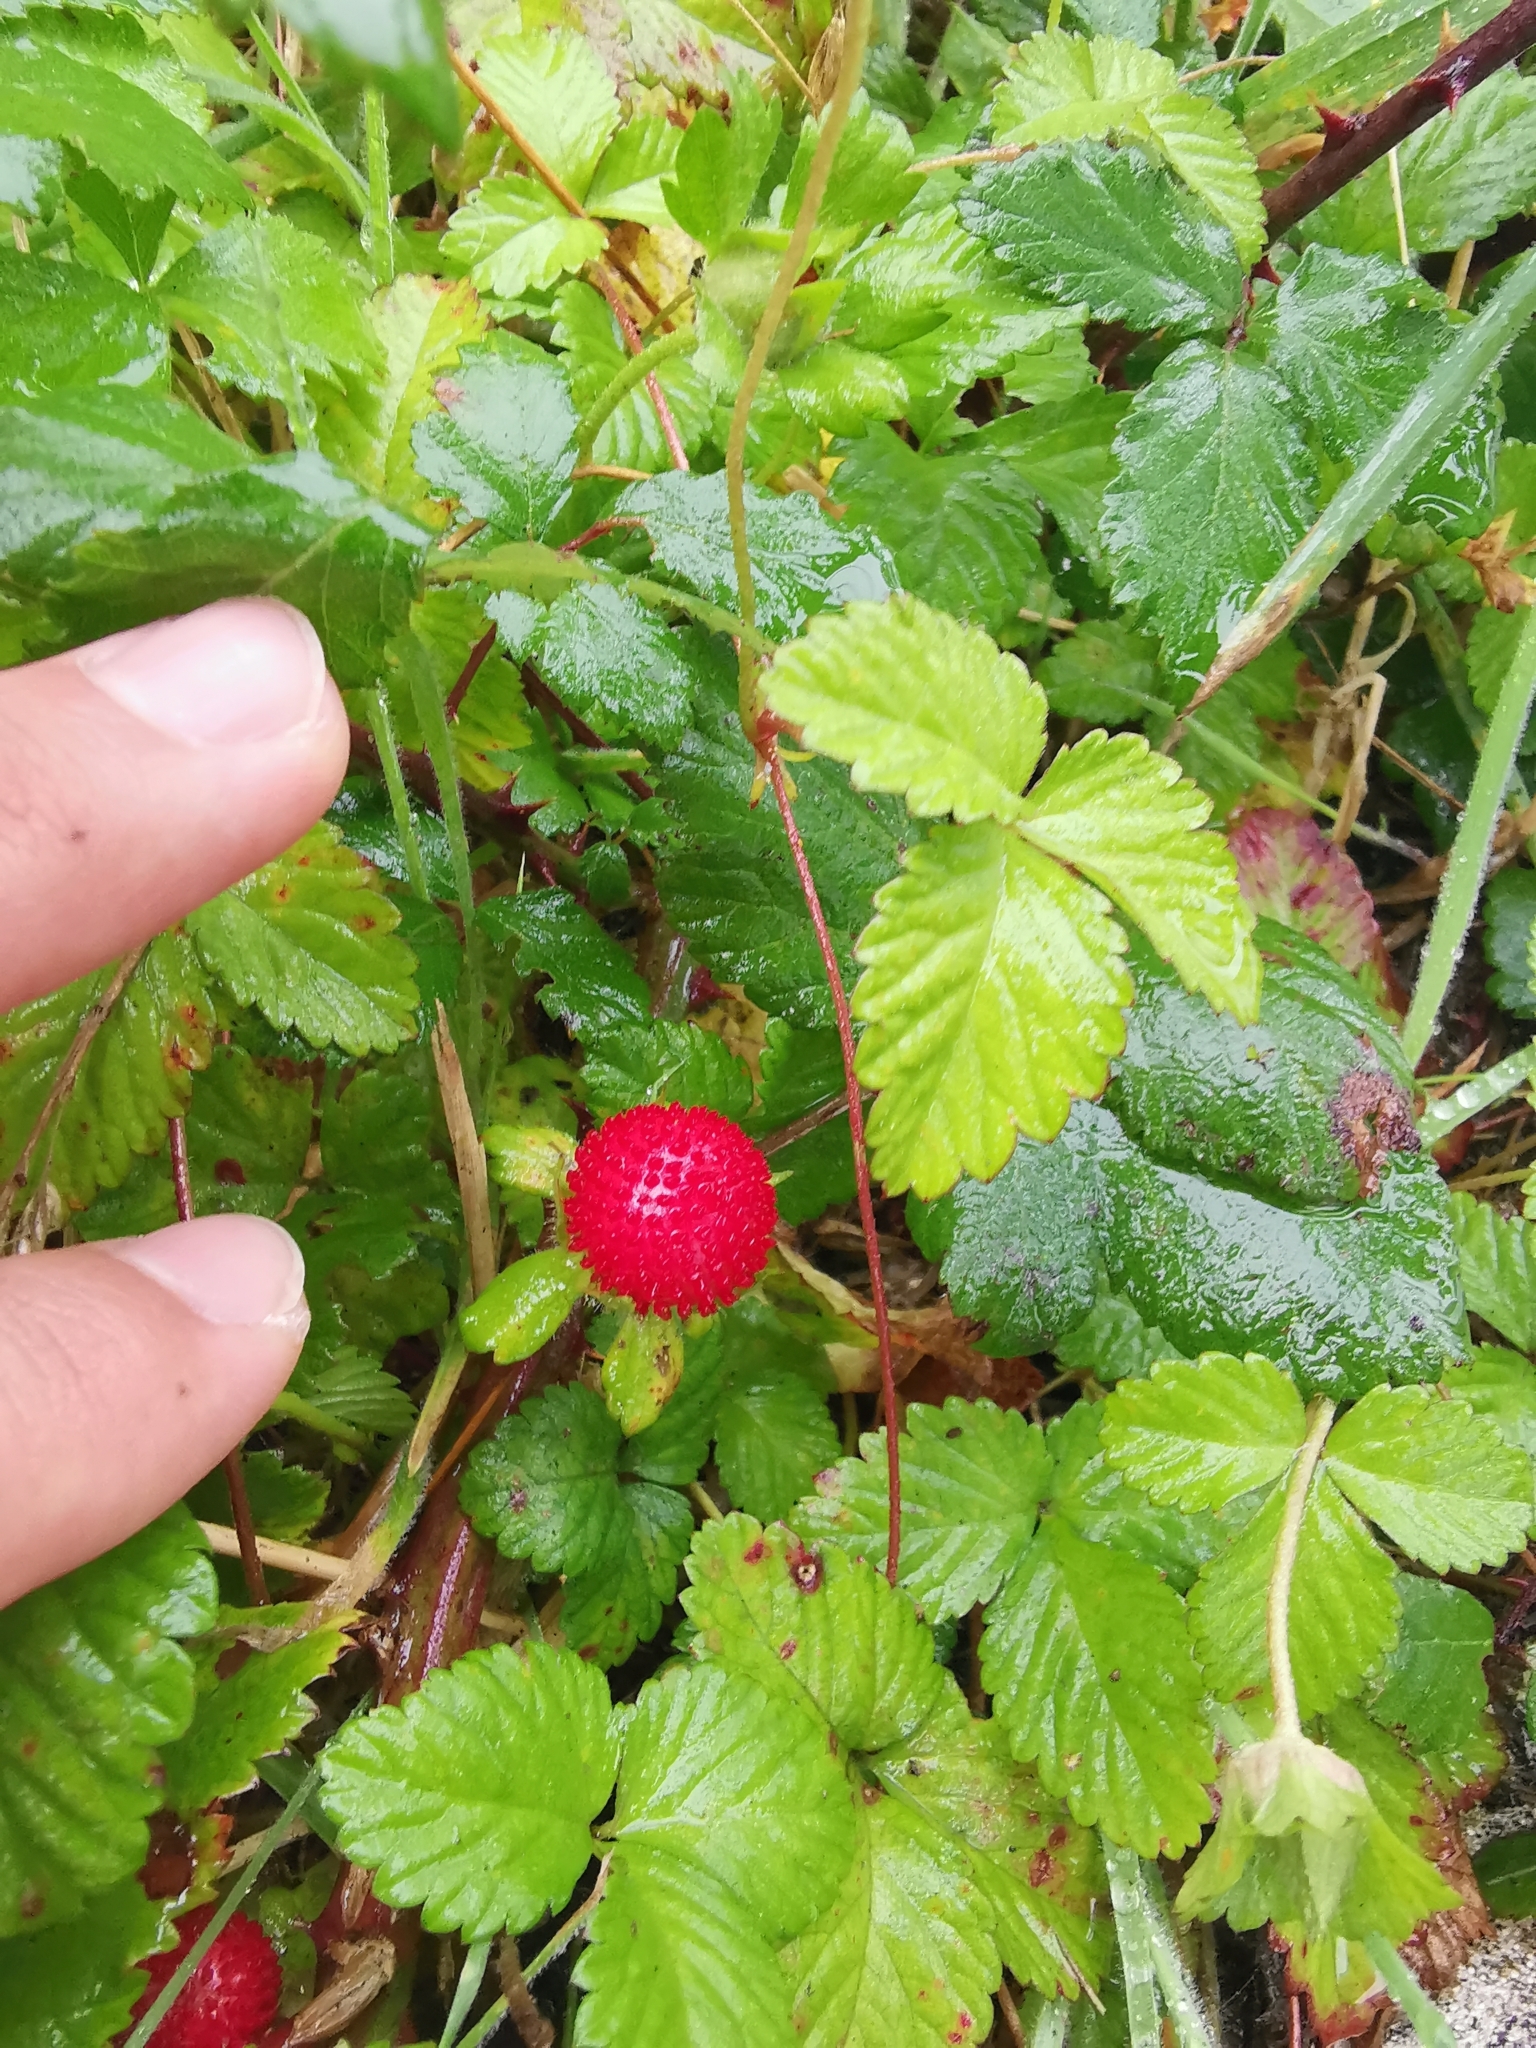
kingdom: Plantae
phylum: Tracheophyta
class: Magnoliopsida
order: Rosales
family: Rosaceae
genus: Potentilla
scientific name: Potentilla indica
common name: Yellow-flowered strawberry
